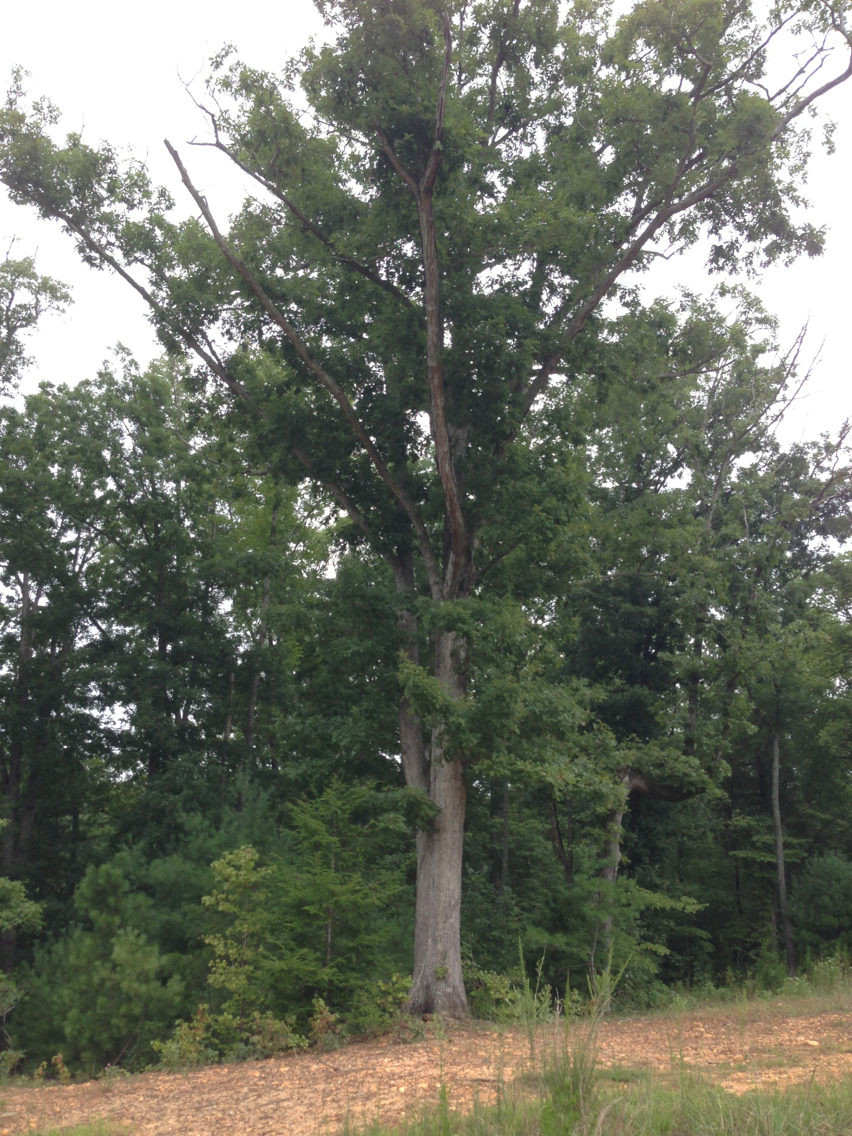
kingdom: Plantae
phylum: Tracheophyta
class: Magnoliopsida
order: Fagales
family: Fagaceae
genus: Quercus
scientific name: Quercus alba
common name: White oak
